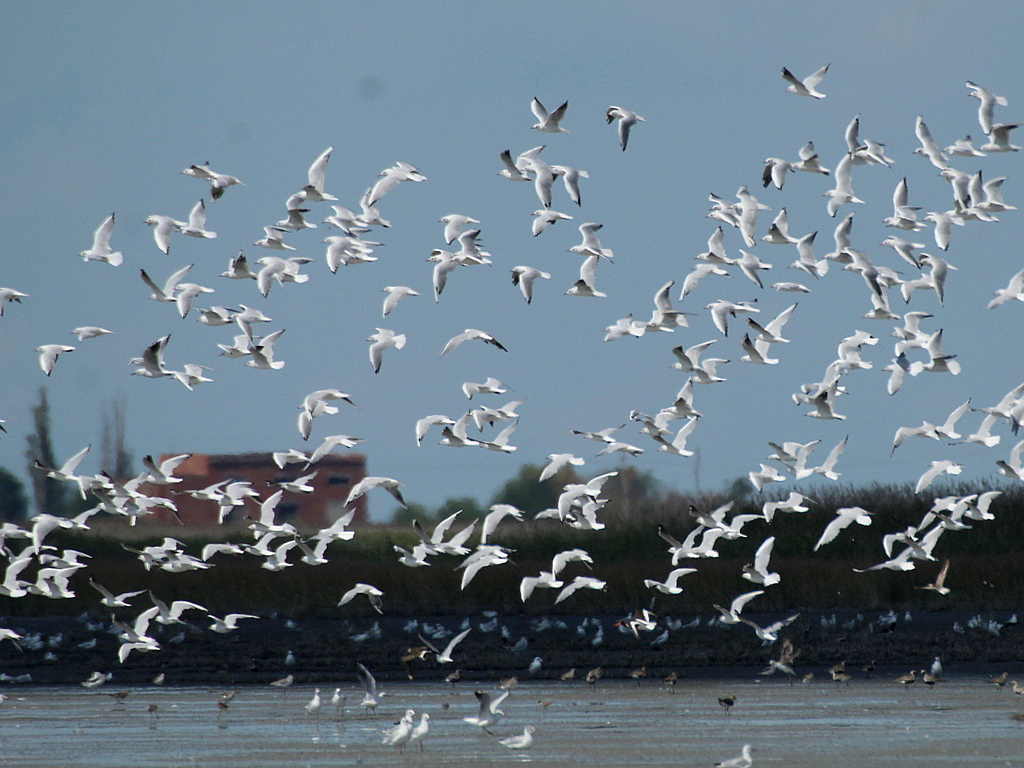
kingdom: Animalia
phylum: Chordata
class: Aves
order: Charadriiformes
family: Laridae
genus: Chroicocephalus
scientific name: Chroicocephalus ridibundus
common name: Black-headed gull
